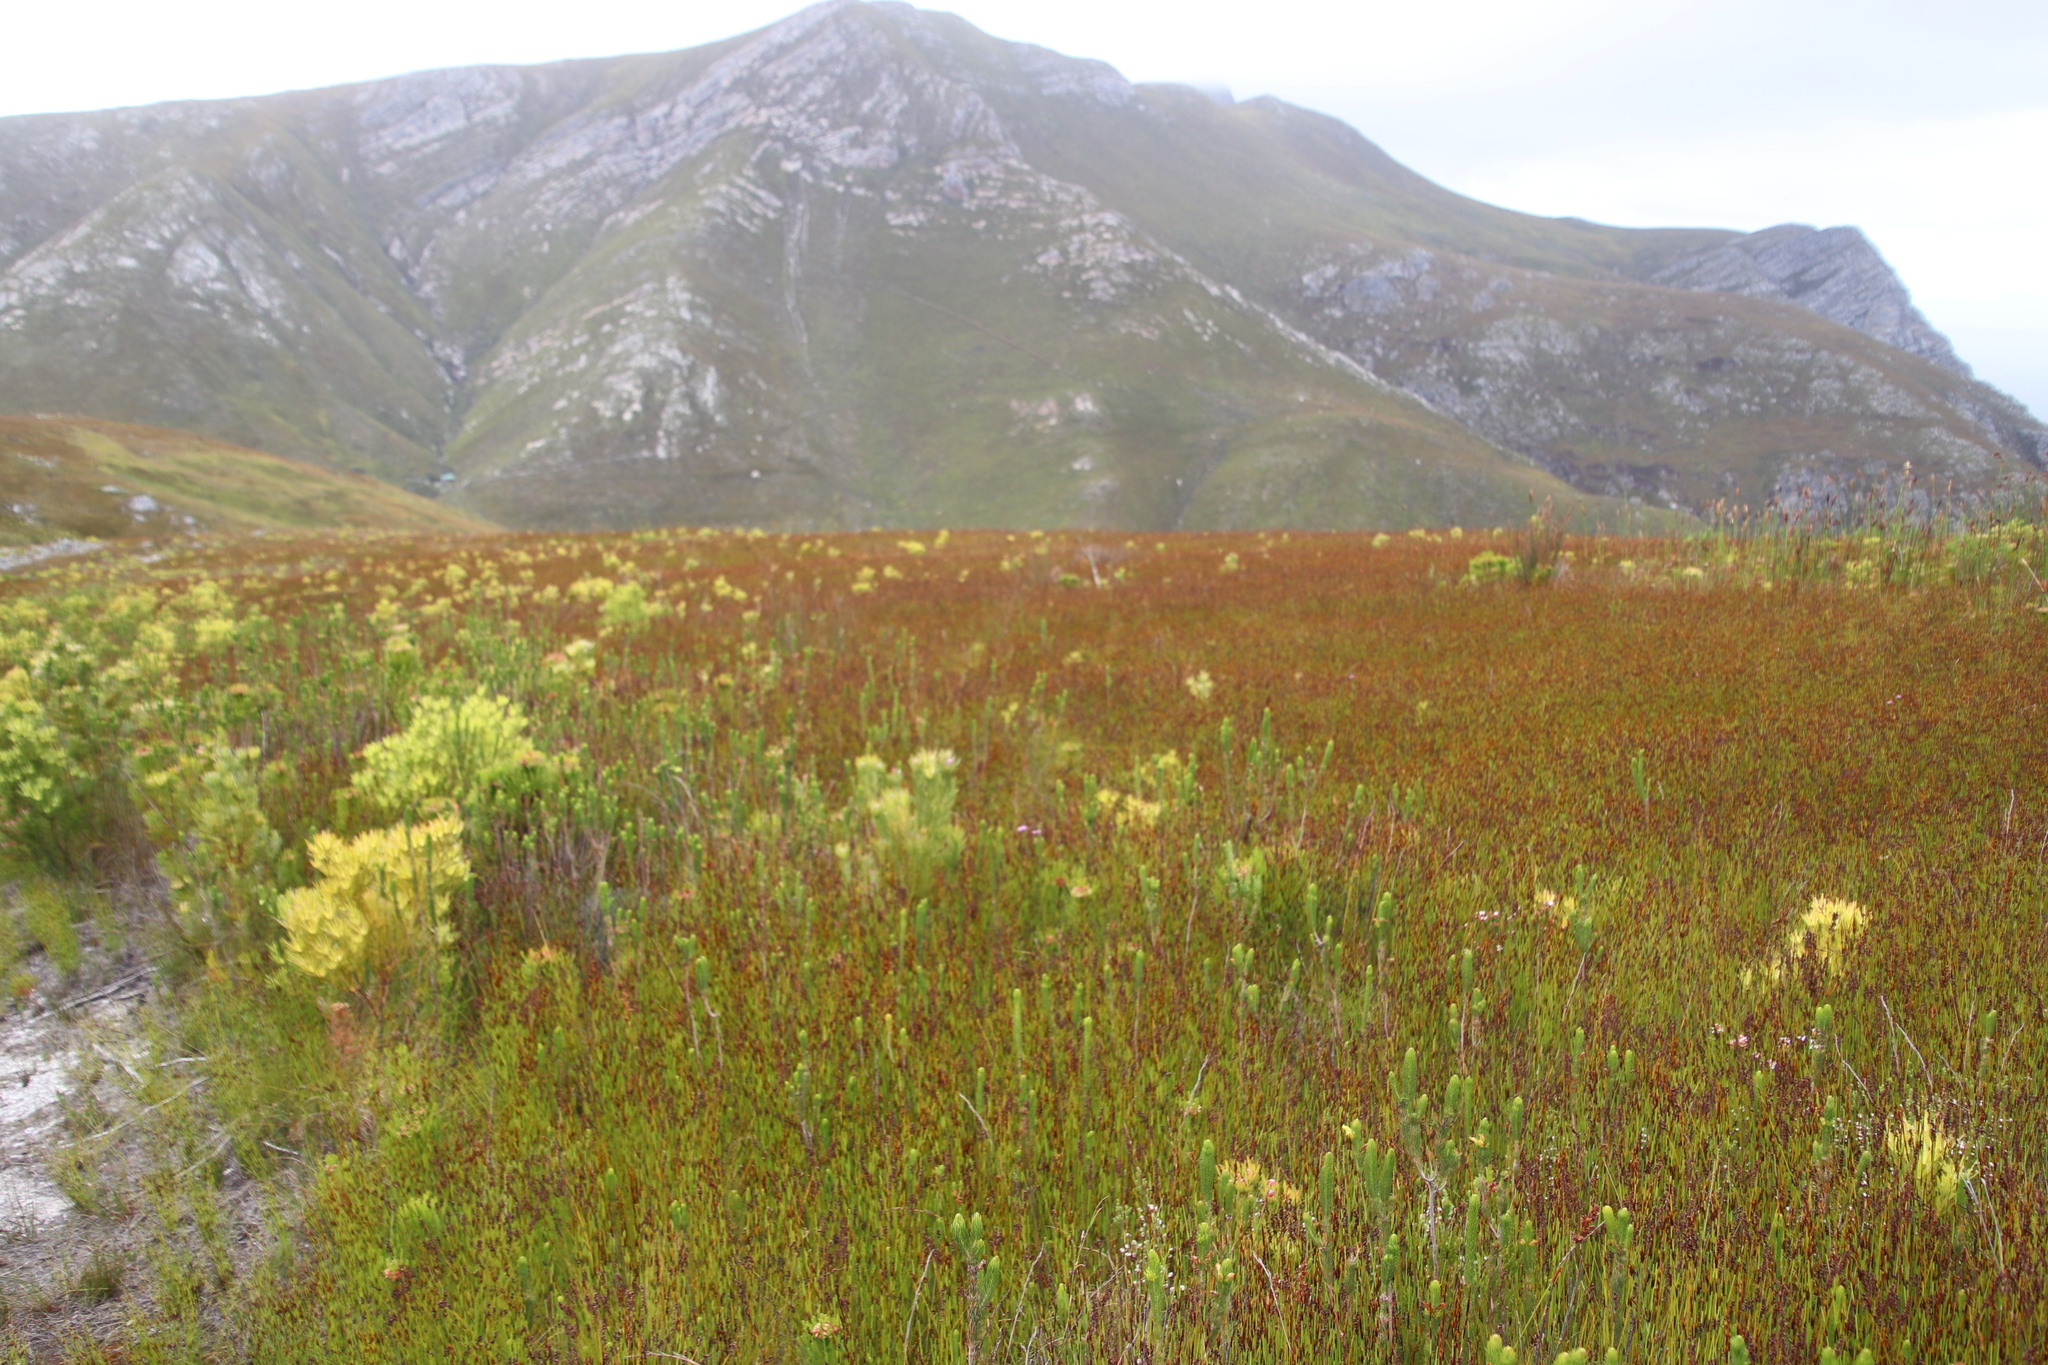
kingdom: Plantae
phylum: Tracheophyta
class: Magnoliopsida
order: Ericales
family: Ericaceae
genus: Erica
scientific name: Erica obliqua
